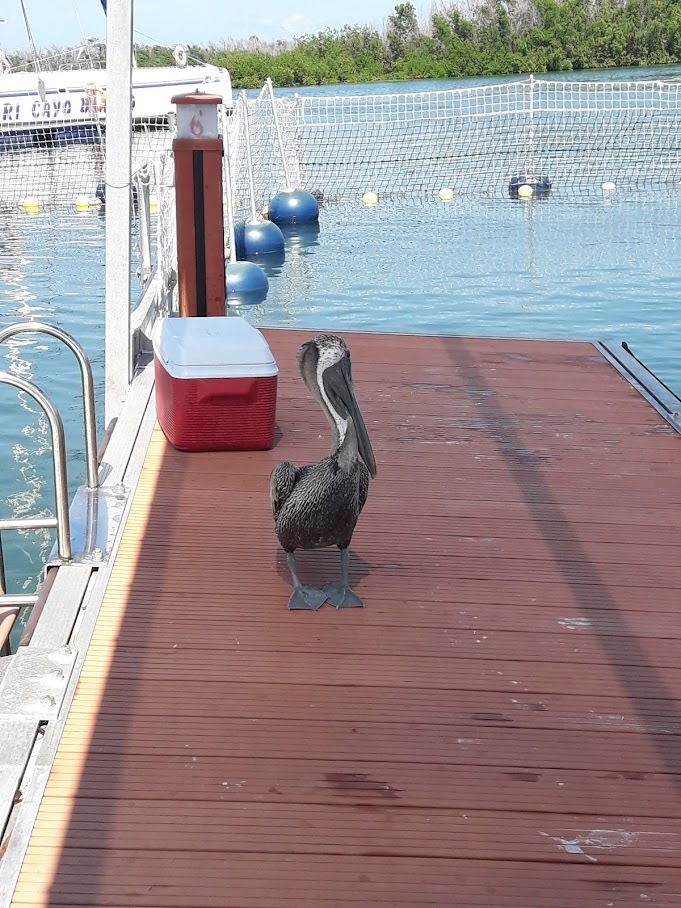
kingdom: Animalia
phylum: Chordata
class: Aves
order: Pelecaniformes
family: Pelecanidae
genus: Pelecanus
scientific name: Pelecanus occidentalis
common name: Brown pelican
